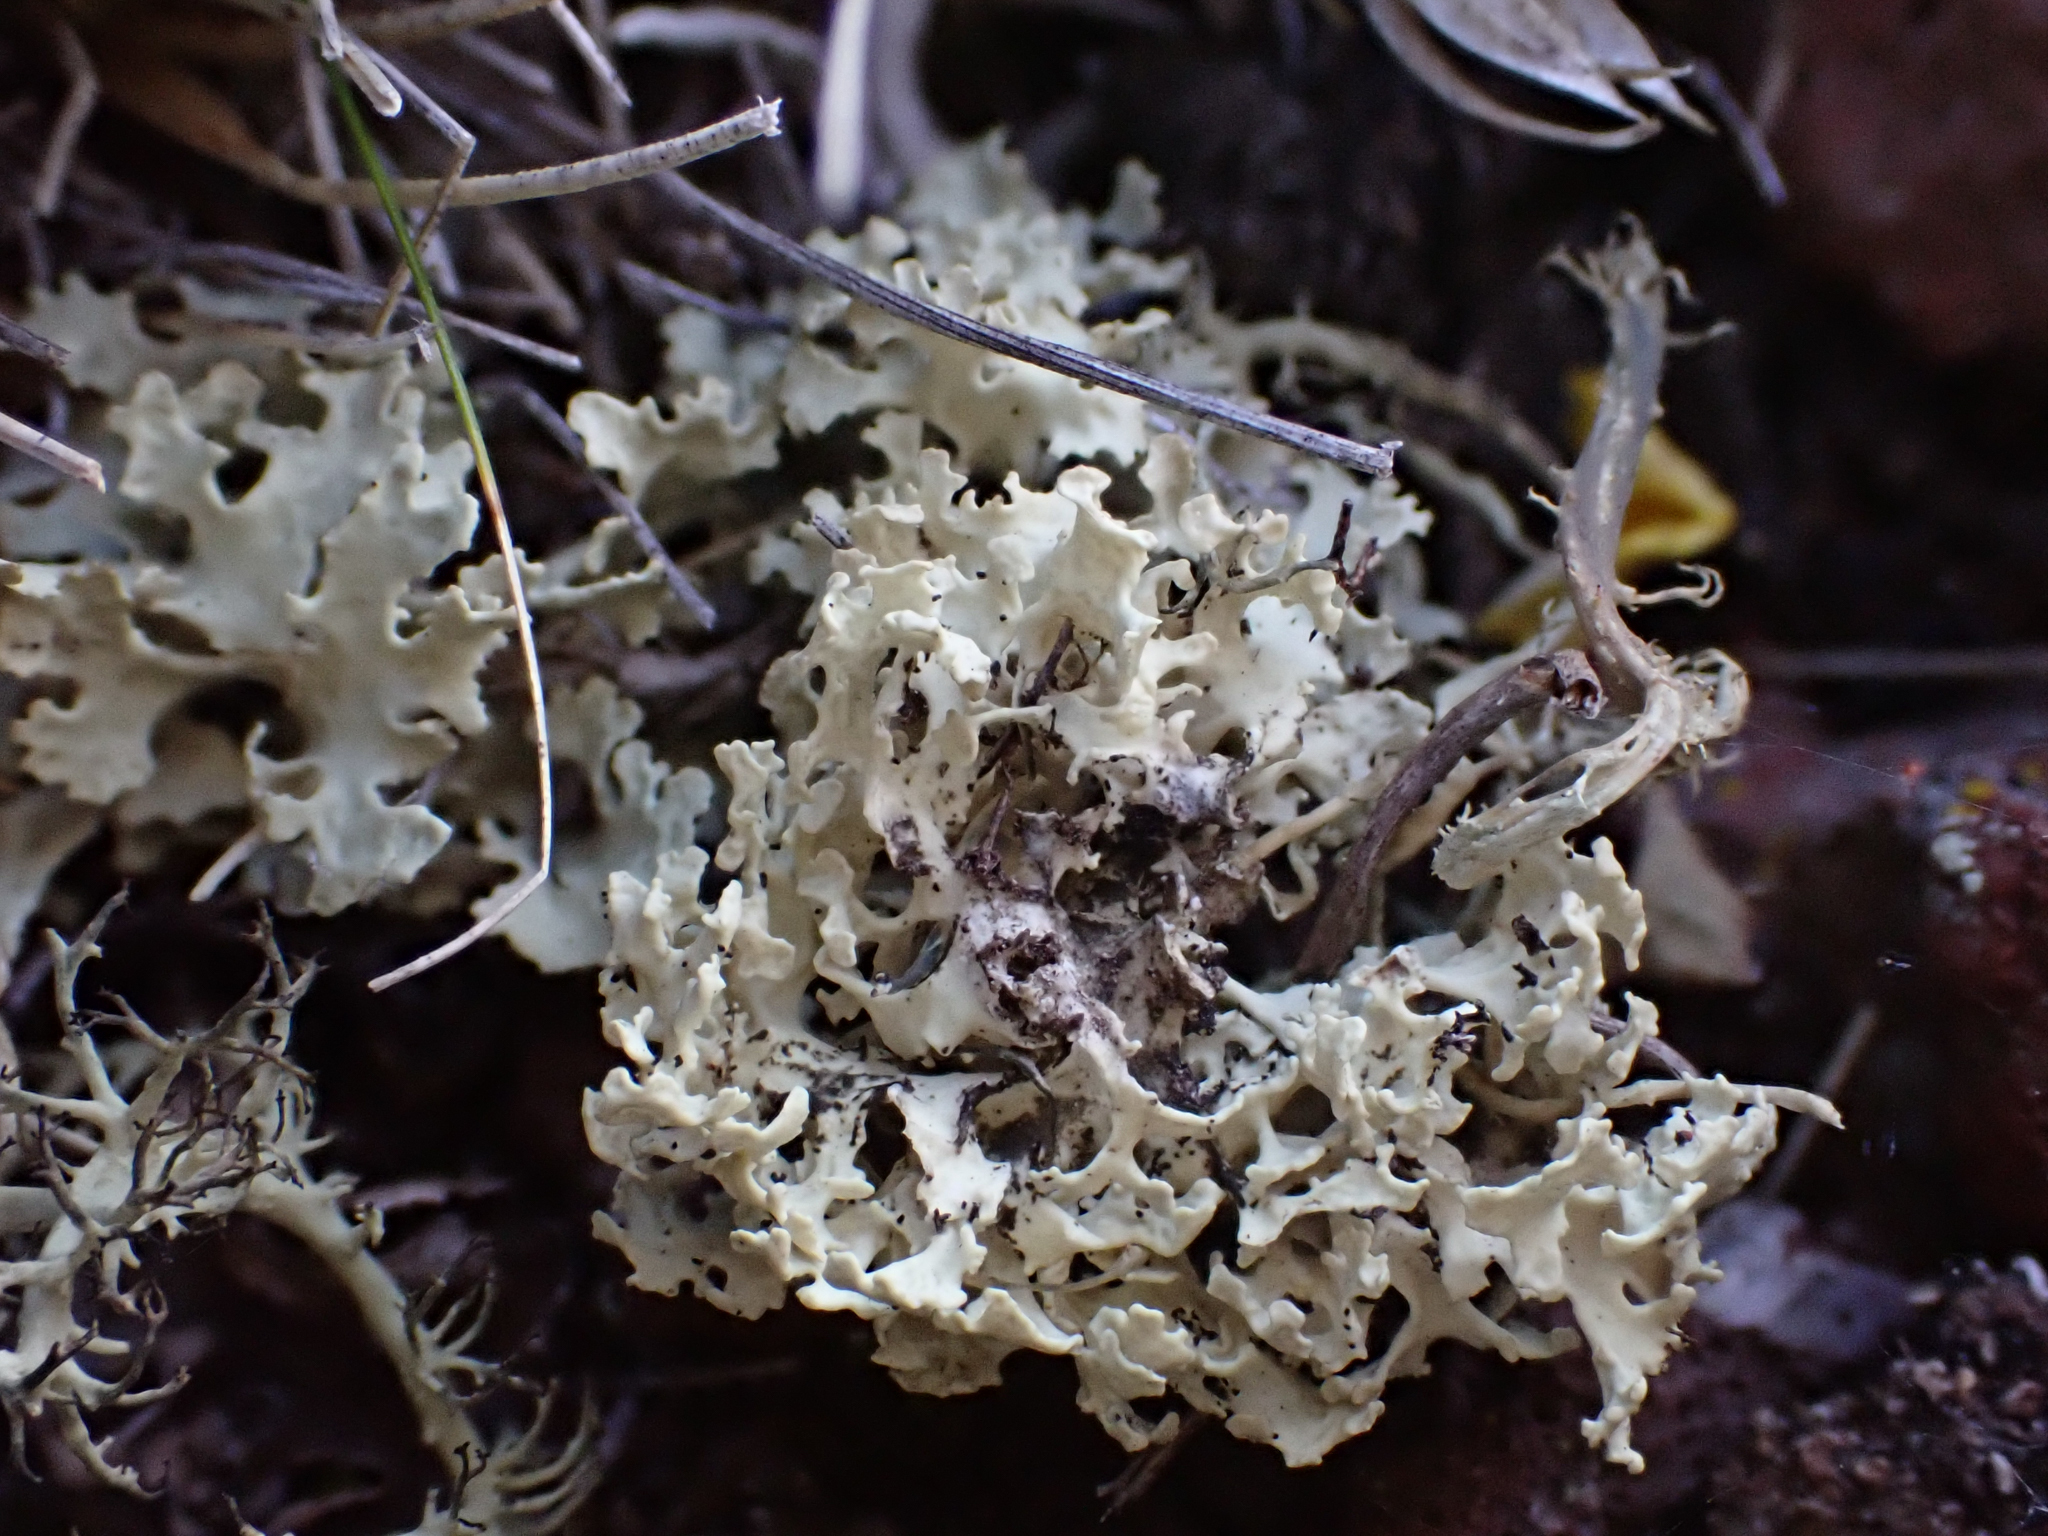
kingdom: Fungi
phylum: Ascomycota
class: Lecanoromycetes
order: Lecanorales
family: Parmeliaceae
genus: Nephromopsis
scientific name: Nephromopsis nivalis
